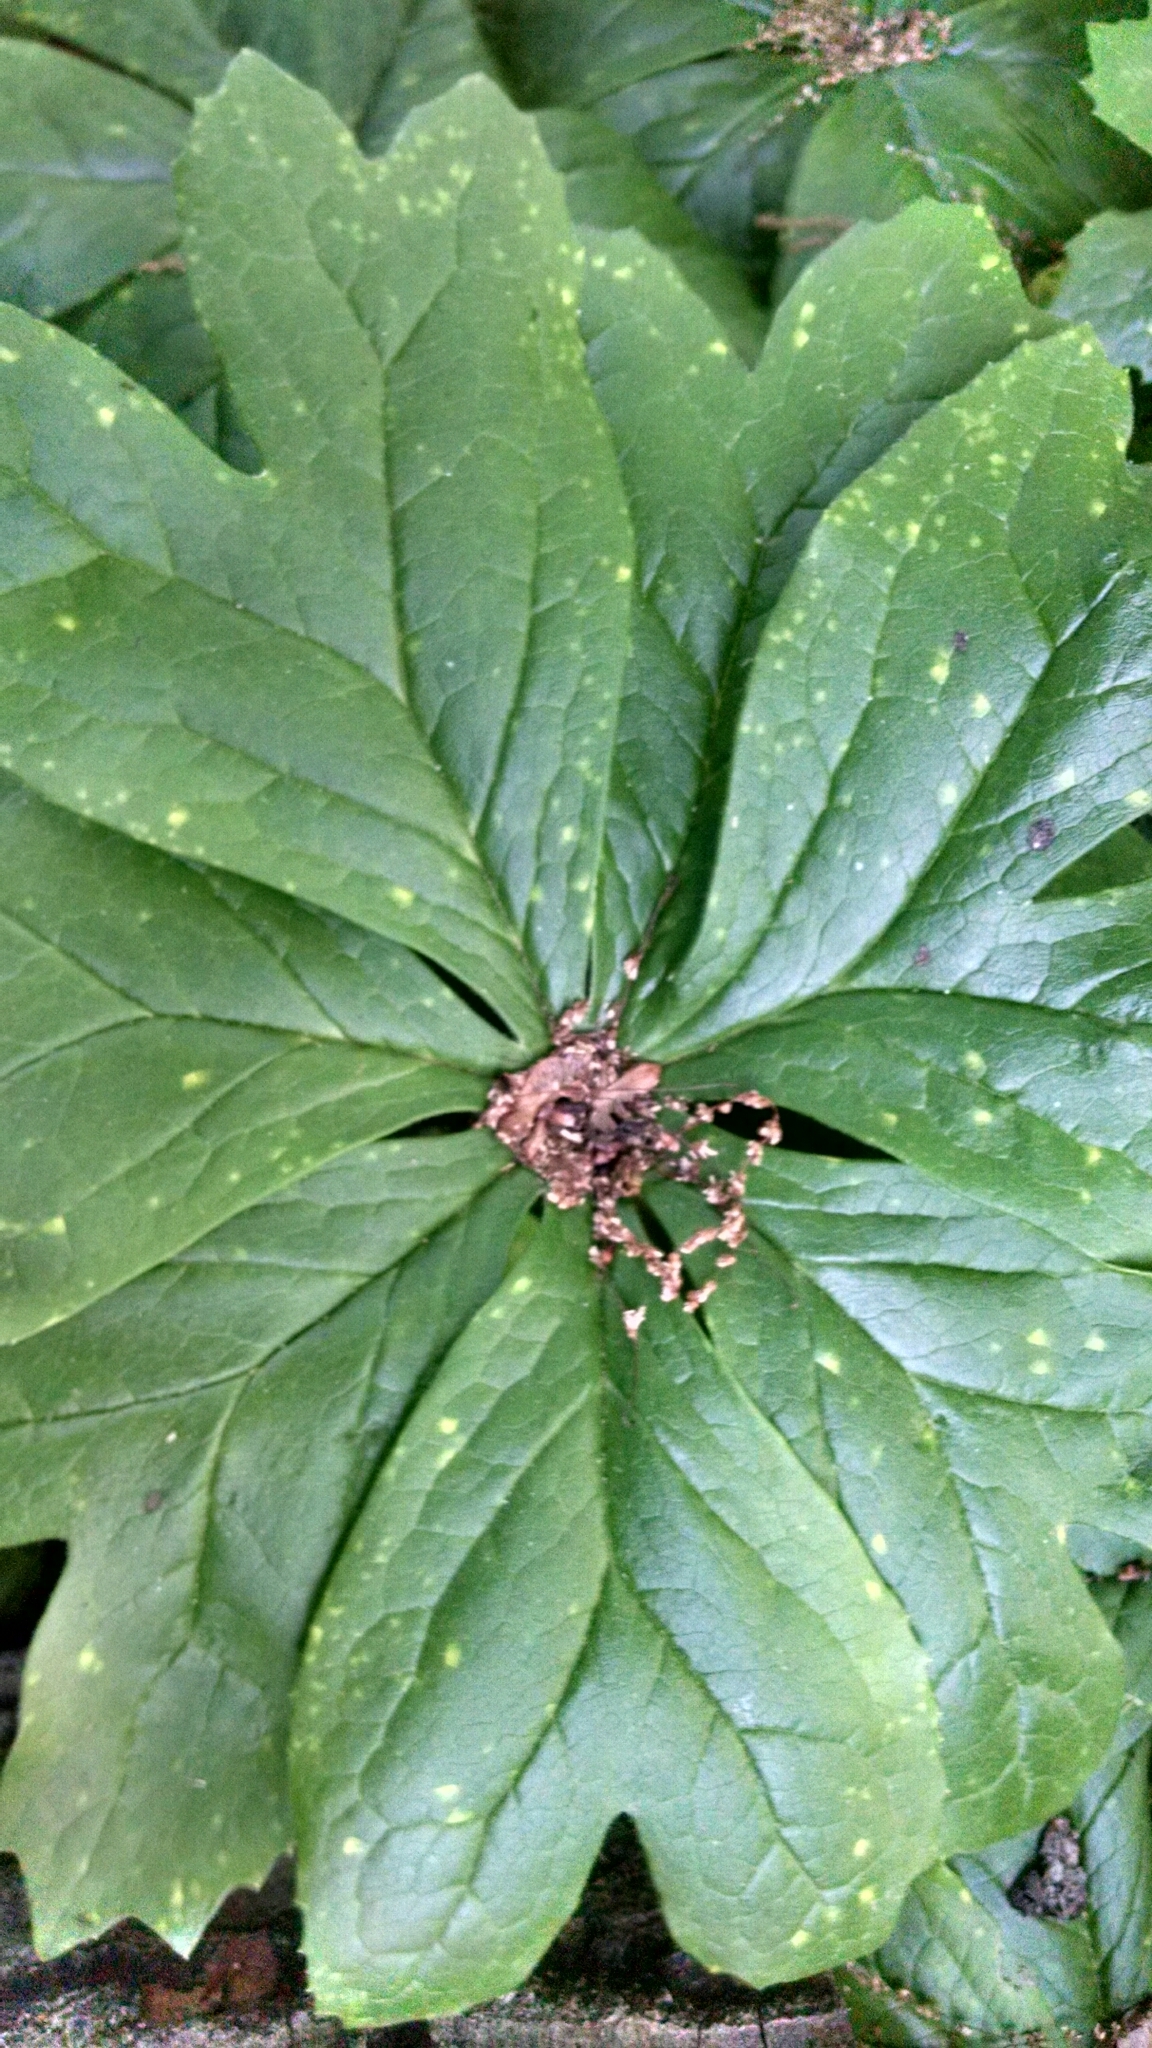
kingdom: Plantae
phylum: Tracheophyta
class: Magnoliopsida
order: Ranunculales
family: Berberidaceae
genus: Podophyllum
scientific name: Podophyllum peltatum
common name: Wild mandrake
